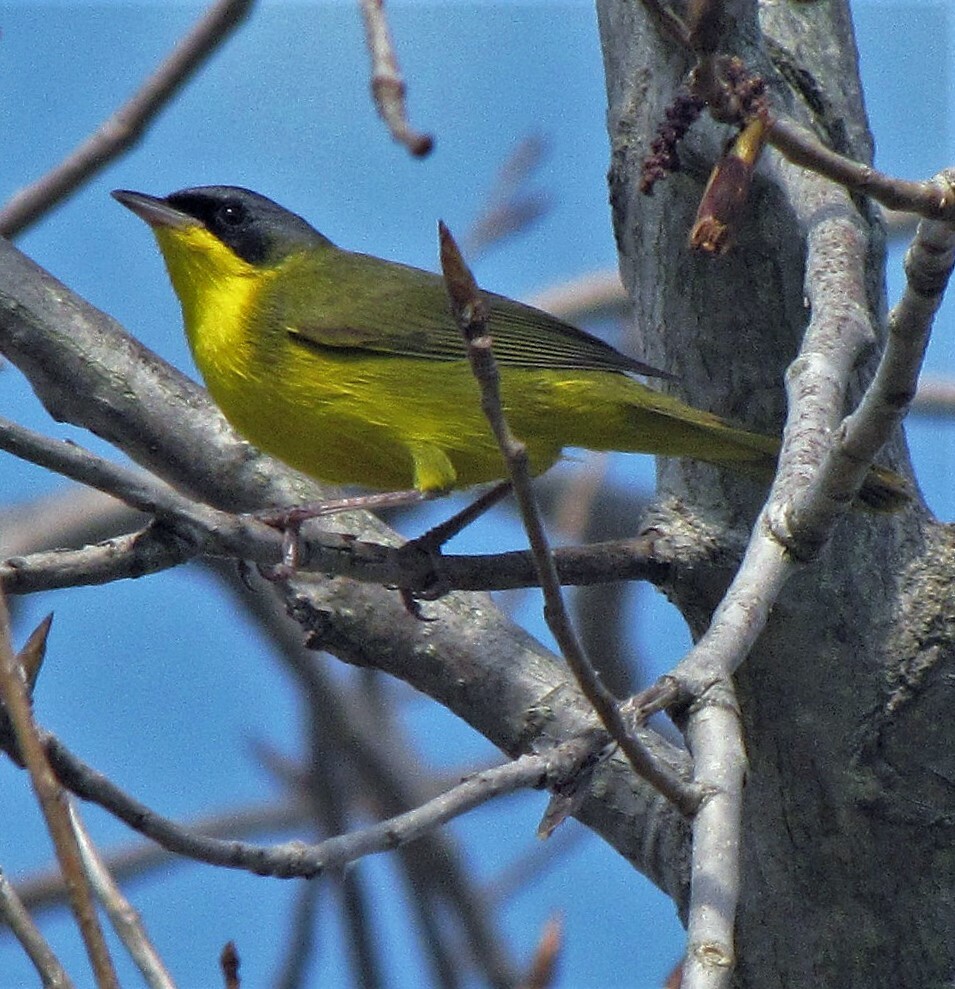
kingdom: Animalia
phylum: Chordata
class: Aves
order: Passeriformes
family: Parulidae
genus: Geothlypis
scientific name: Geothlypis velata
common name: Southern yellowthroat
